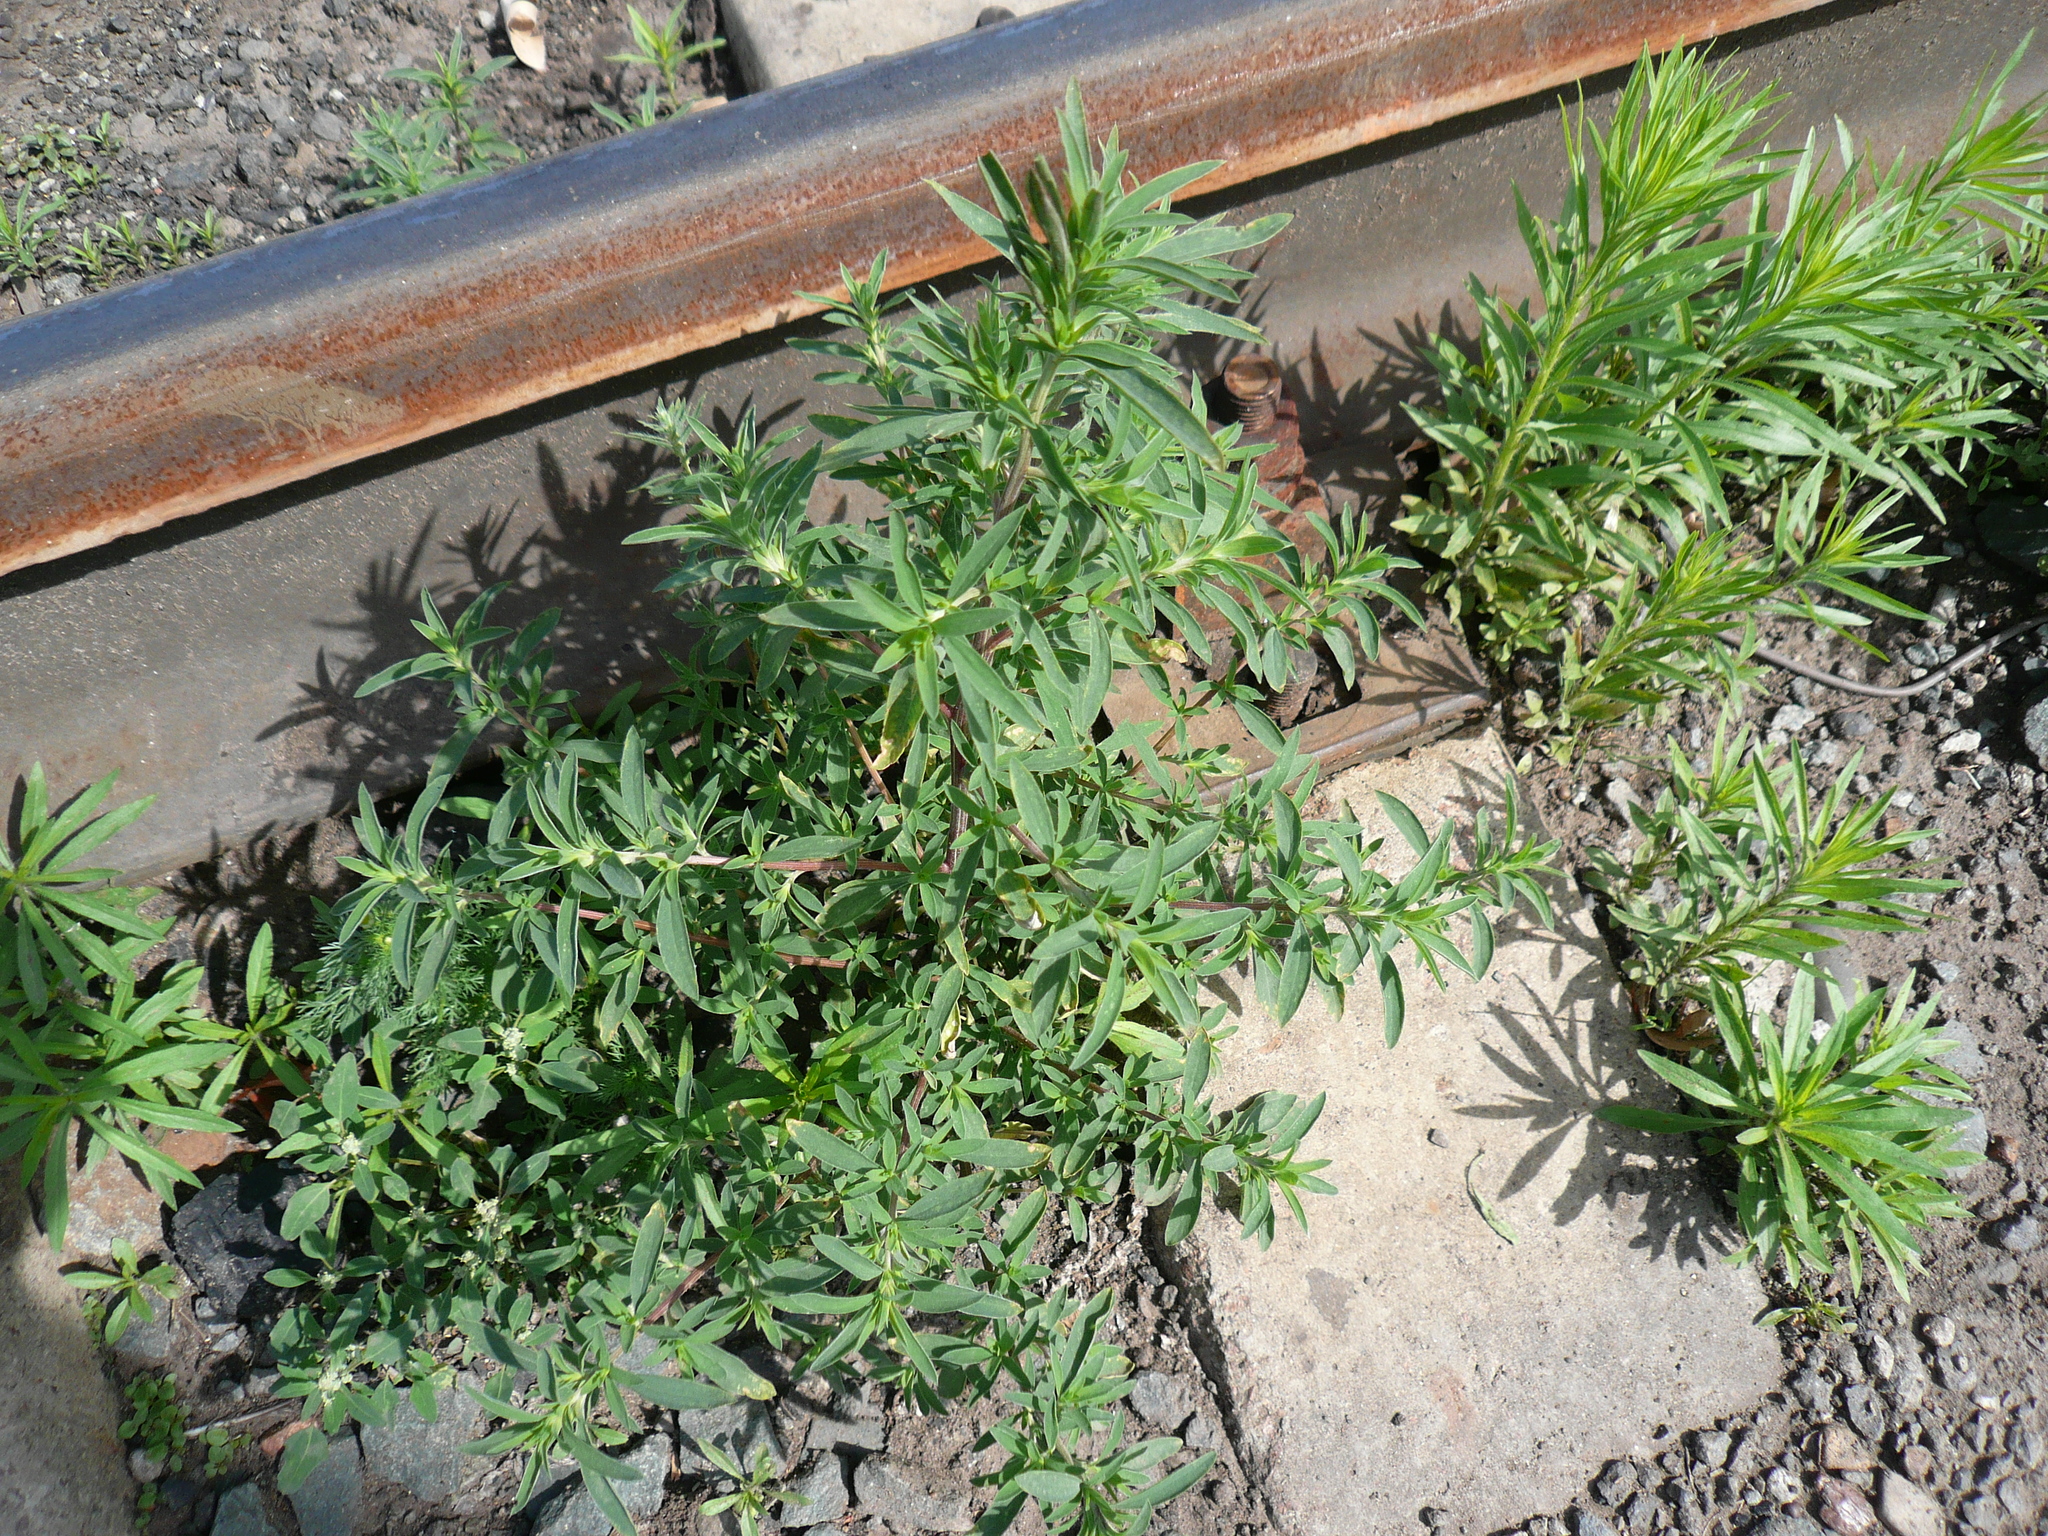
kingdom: Plantae
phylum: Tracheophyta
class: Magnoliopsida
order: Caryophyllales
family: Amaranthaceae
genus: Bassia
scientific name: Bassia scoparia
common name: Belvedere
